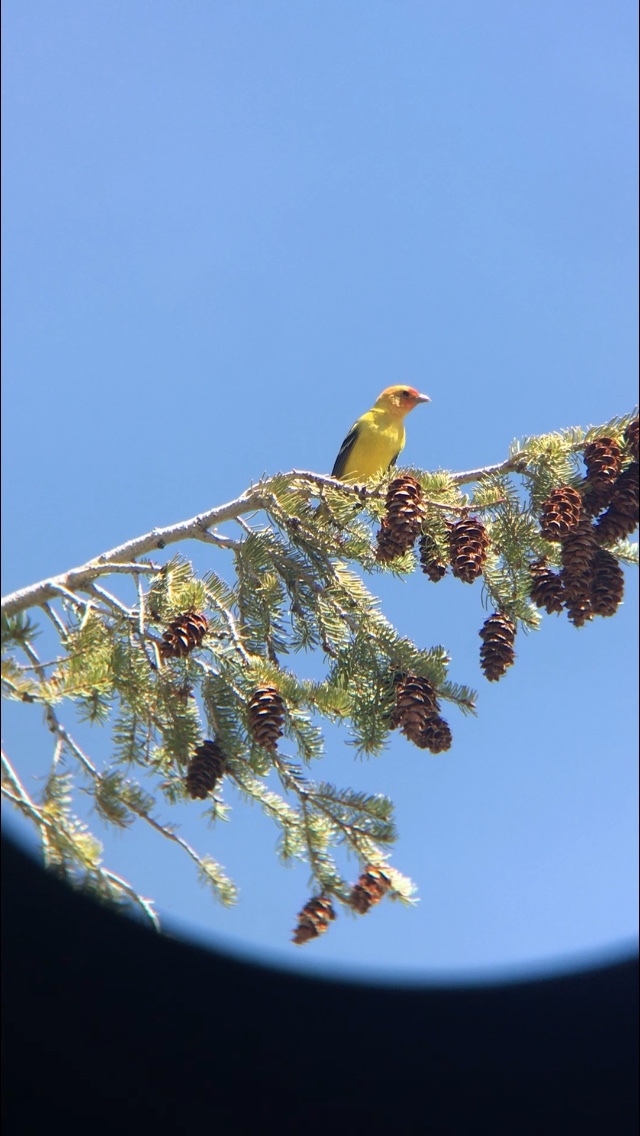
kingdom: Animalia
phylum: Chordata
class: Aves
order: Passeriformes
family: Cardinalidae
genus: Piranga
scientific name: Piranga ludoviciana
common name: Western tanager
